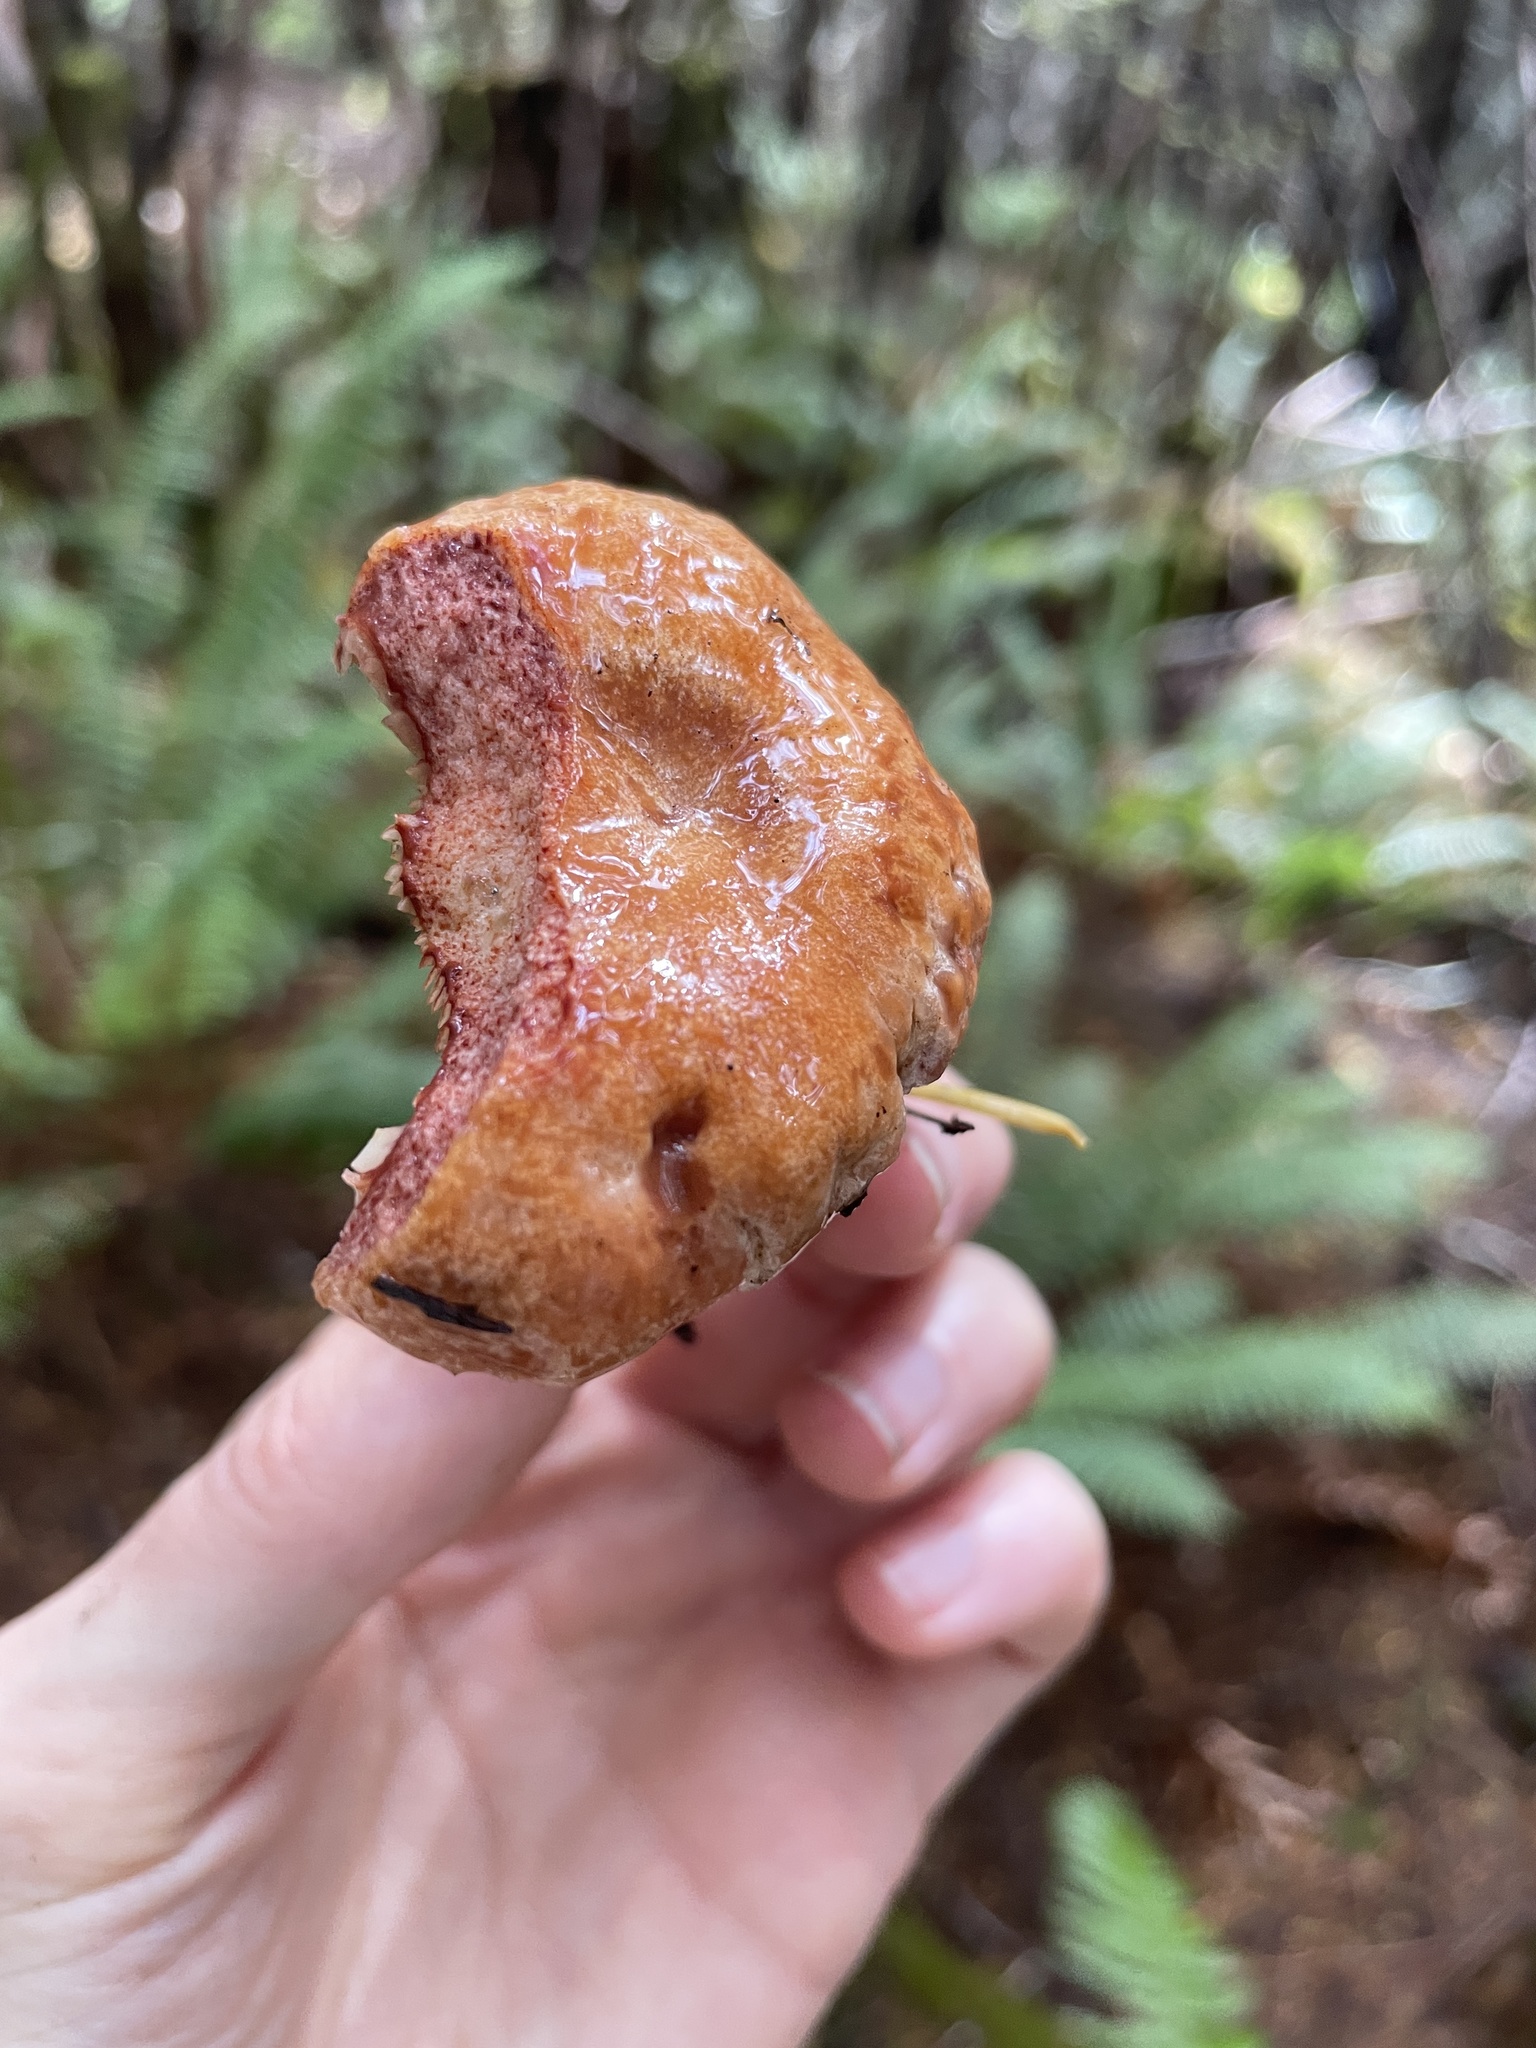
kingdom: Fungi
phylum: Basidiomycota
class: Agaricomycetes
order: Russulales
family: Russulaceae
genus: Lactarius
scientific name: Lactarius rubrilacteus
